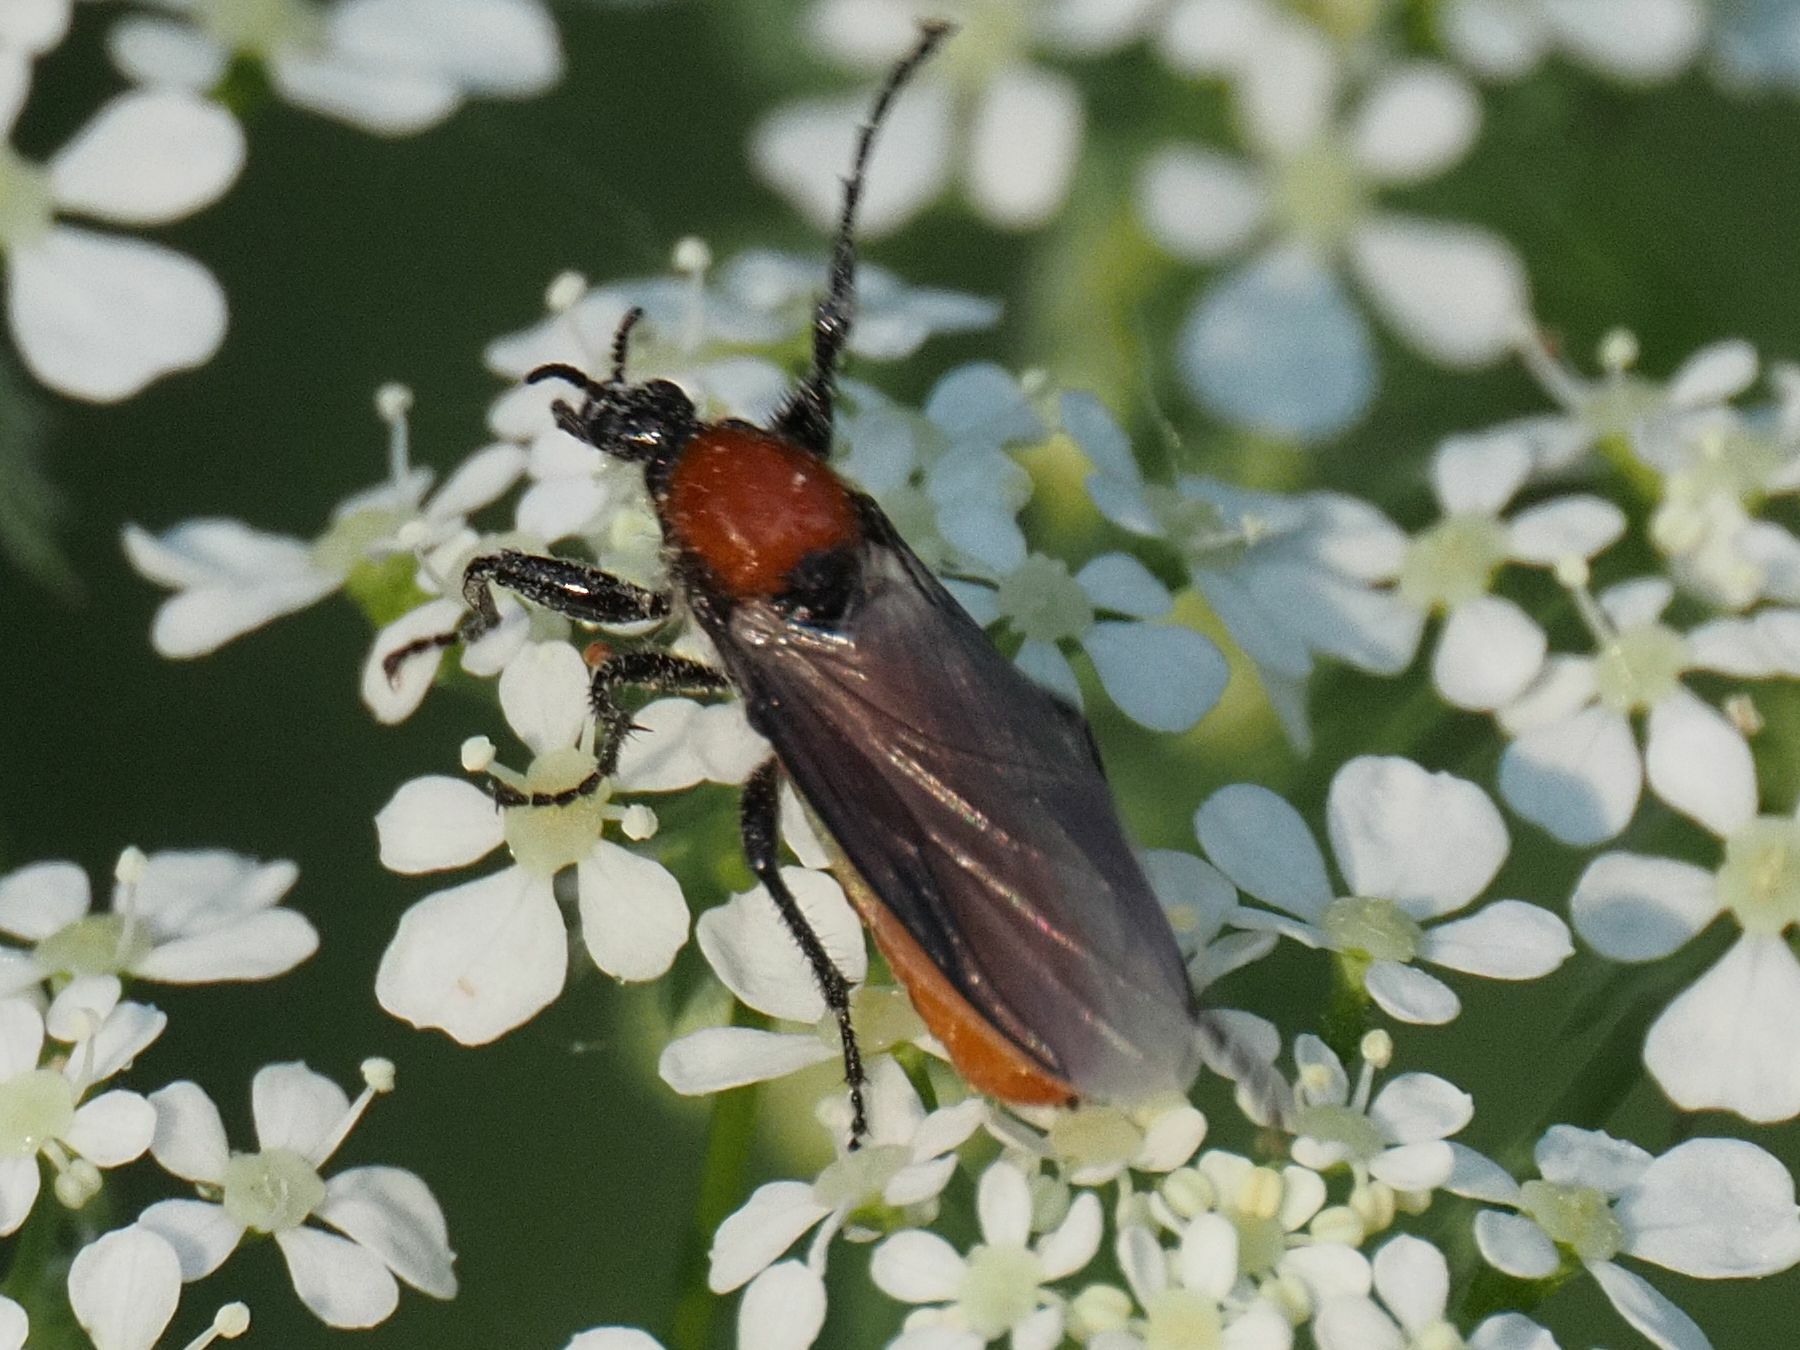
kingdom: Animalia
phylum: Arthropoda
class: Insecta
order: Diptera
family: Bibionidae
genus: Bibio
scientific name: Bibio hortulanus
